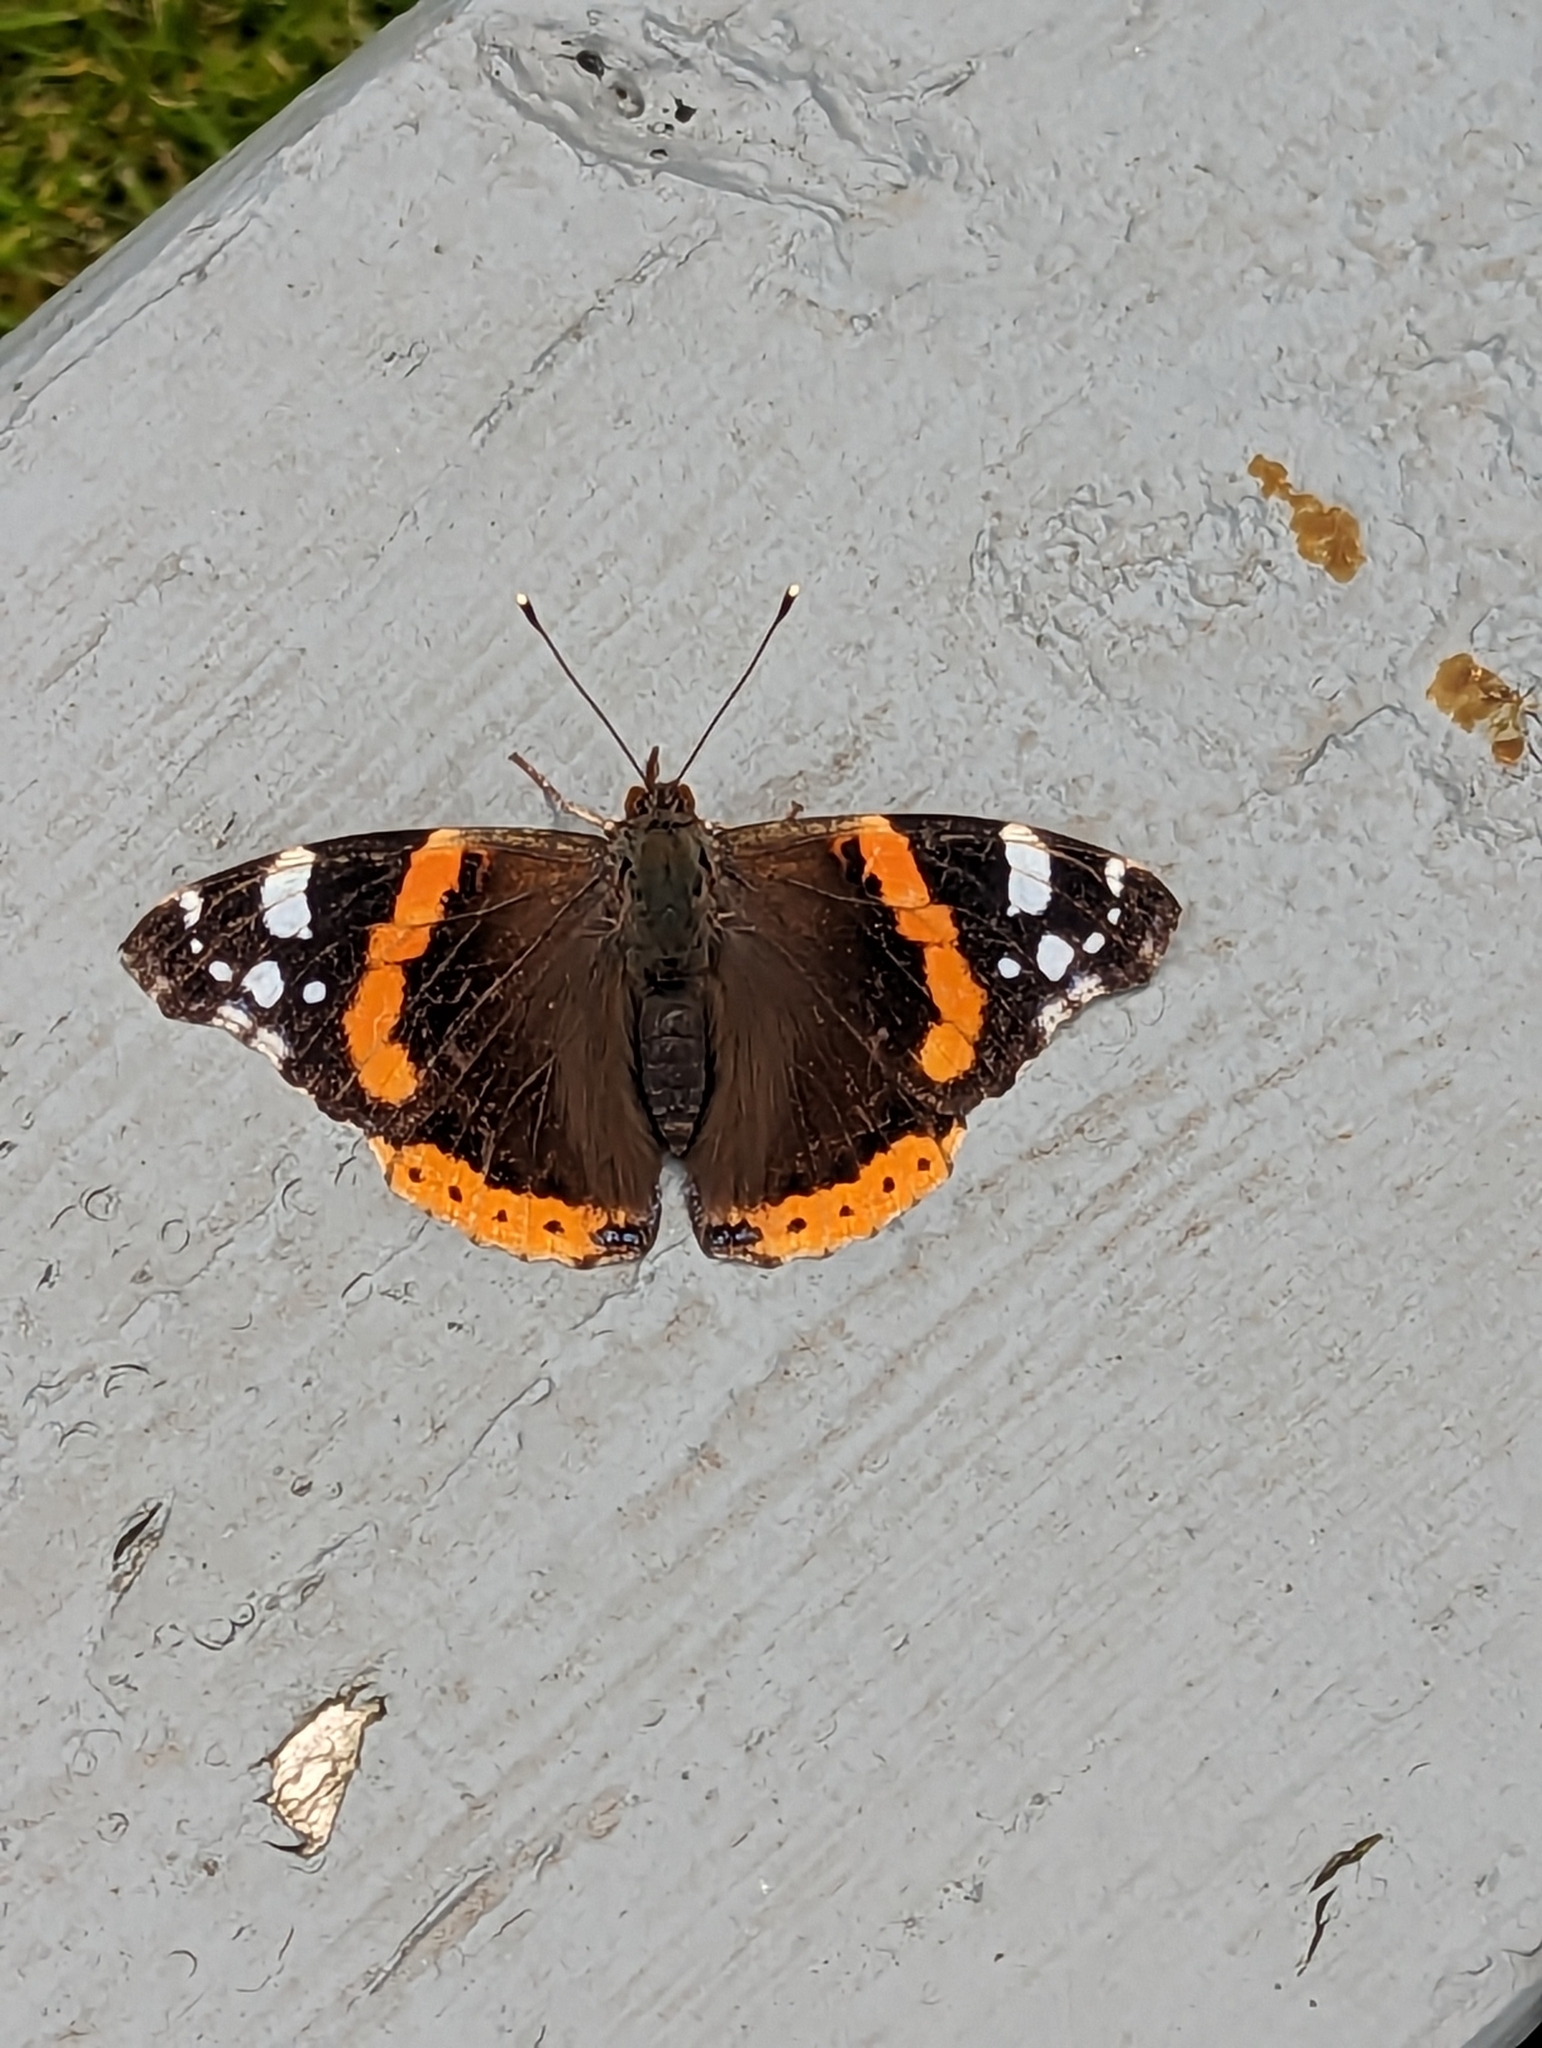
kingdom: Animalia
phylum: Arthropoda
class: Insecta
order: Lepidoptera
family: Nymphalidae
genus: Vanessa
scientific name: Vanessa atalanta
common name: Red admiral
